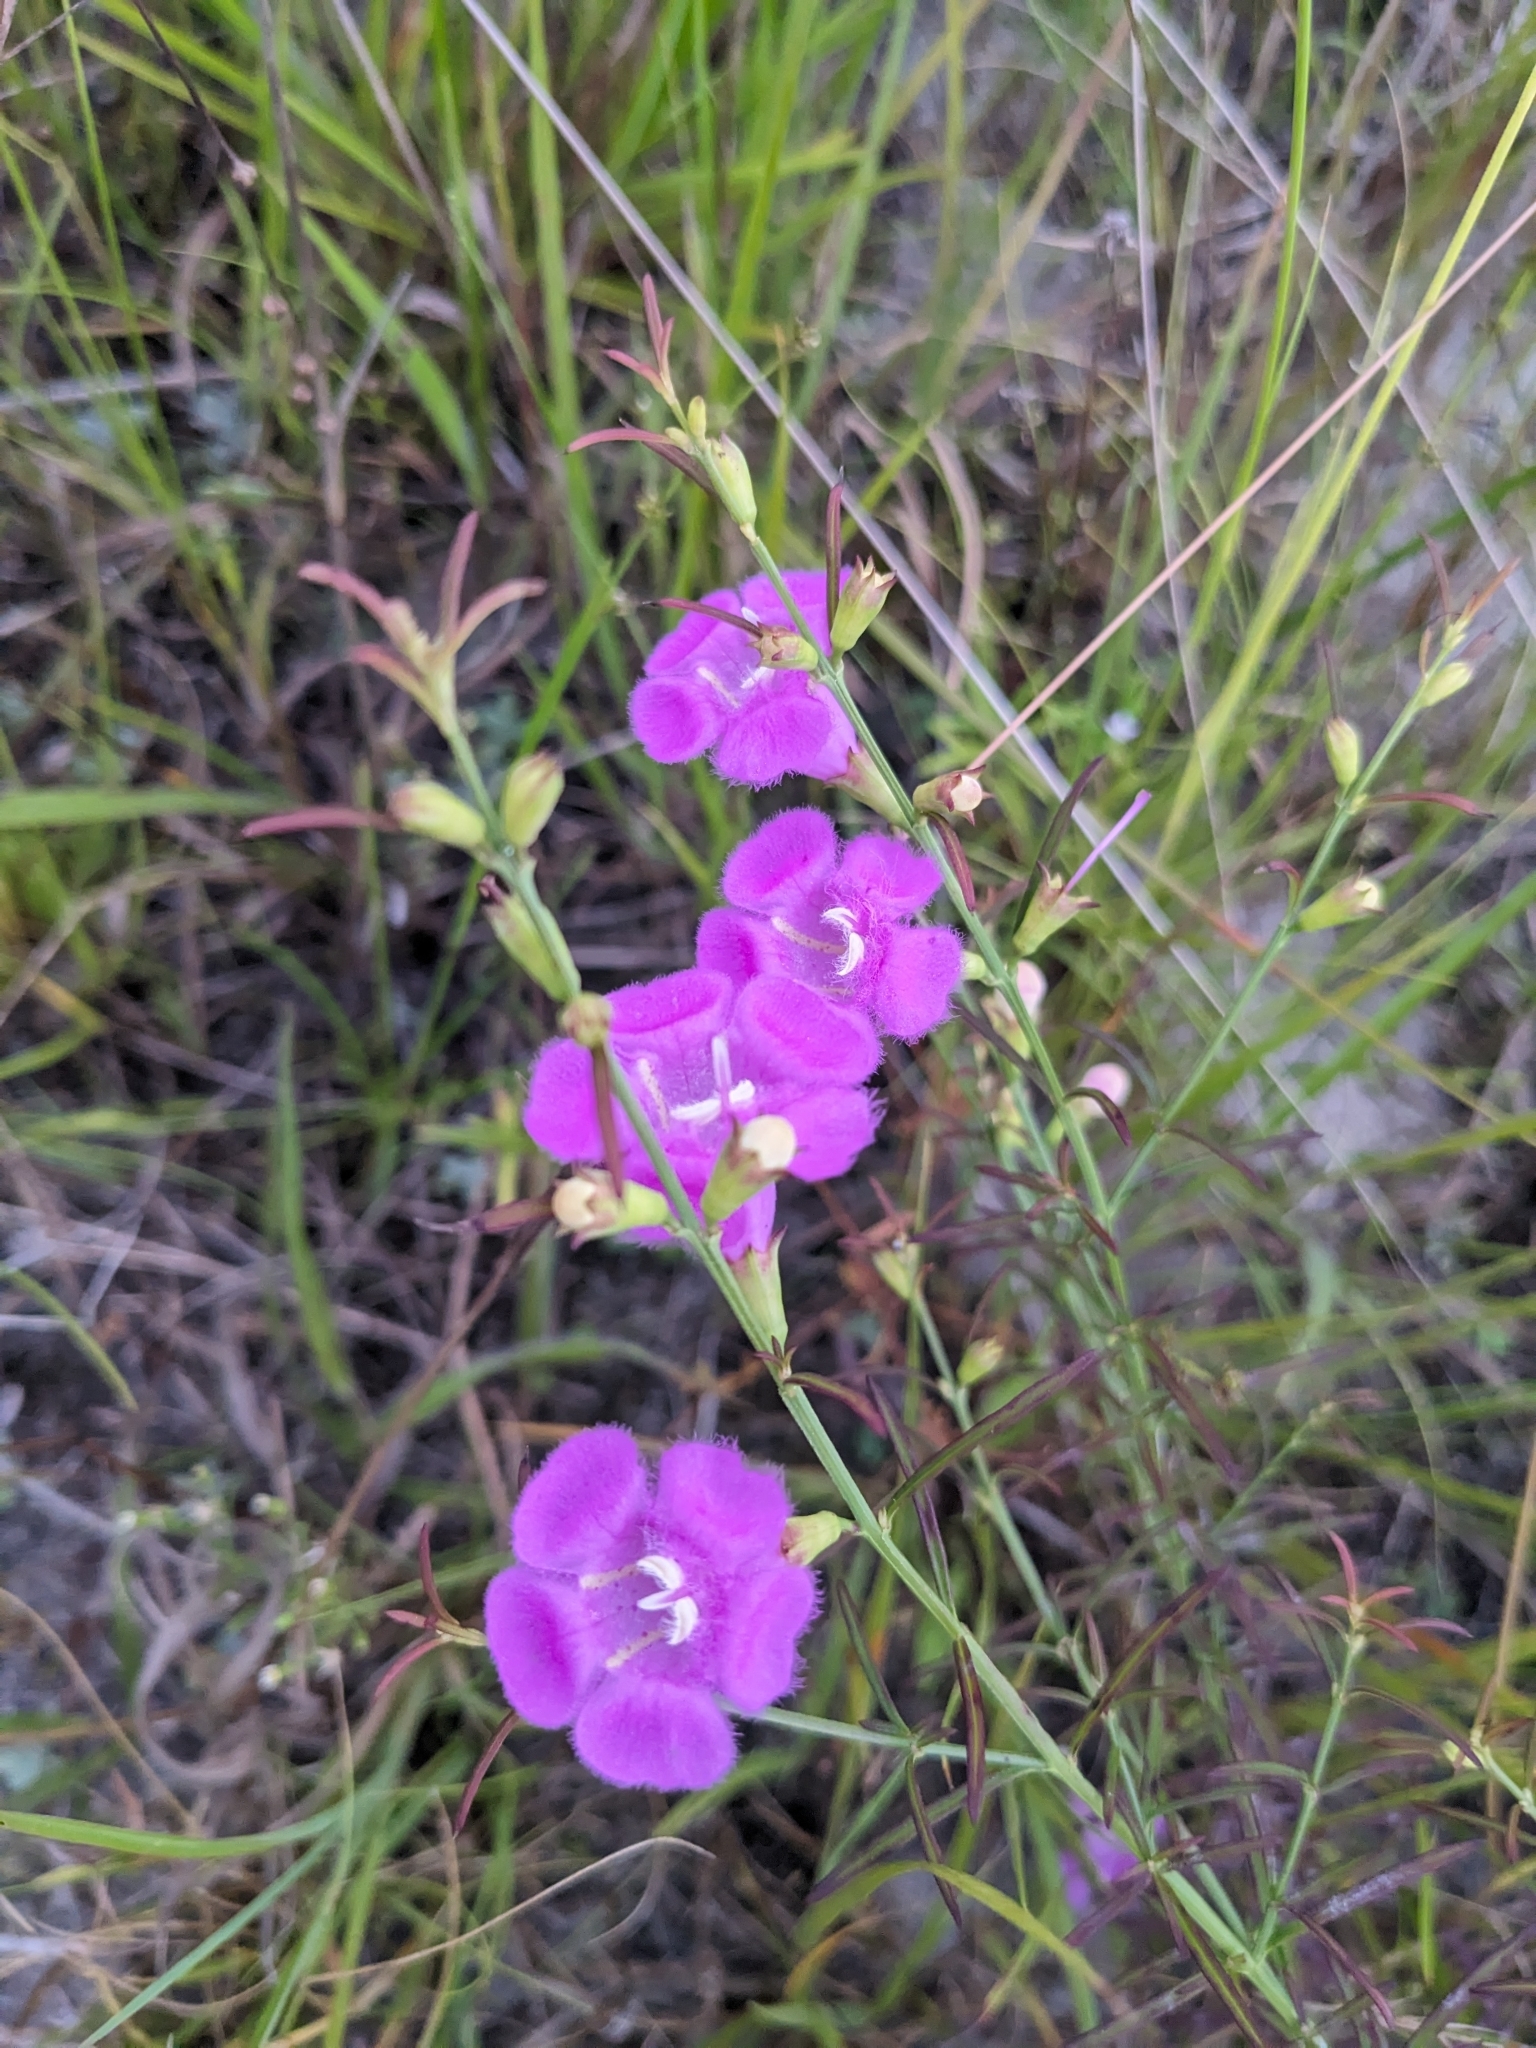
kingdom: Plantae
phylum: Tracheophyta
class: Magnoliopsida
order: Lamiales
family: Orobanchaceae
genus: Agalinis
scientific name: Agalinis purpurea
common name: Purple false foxglove
